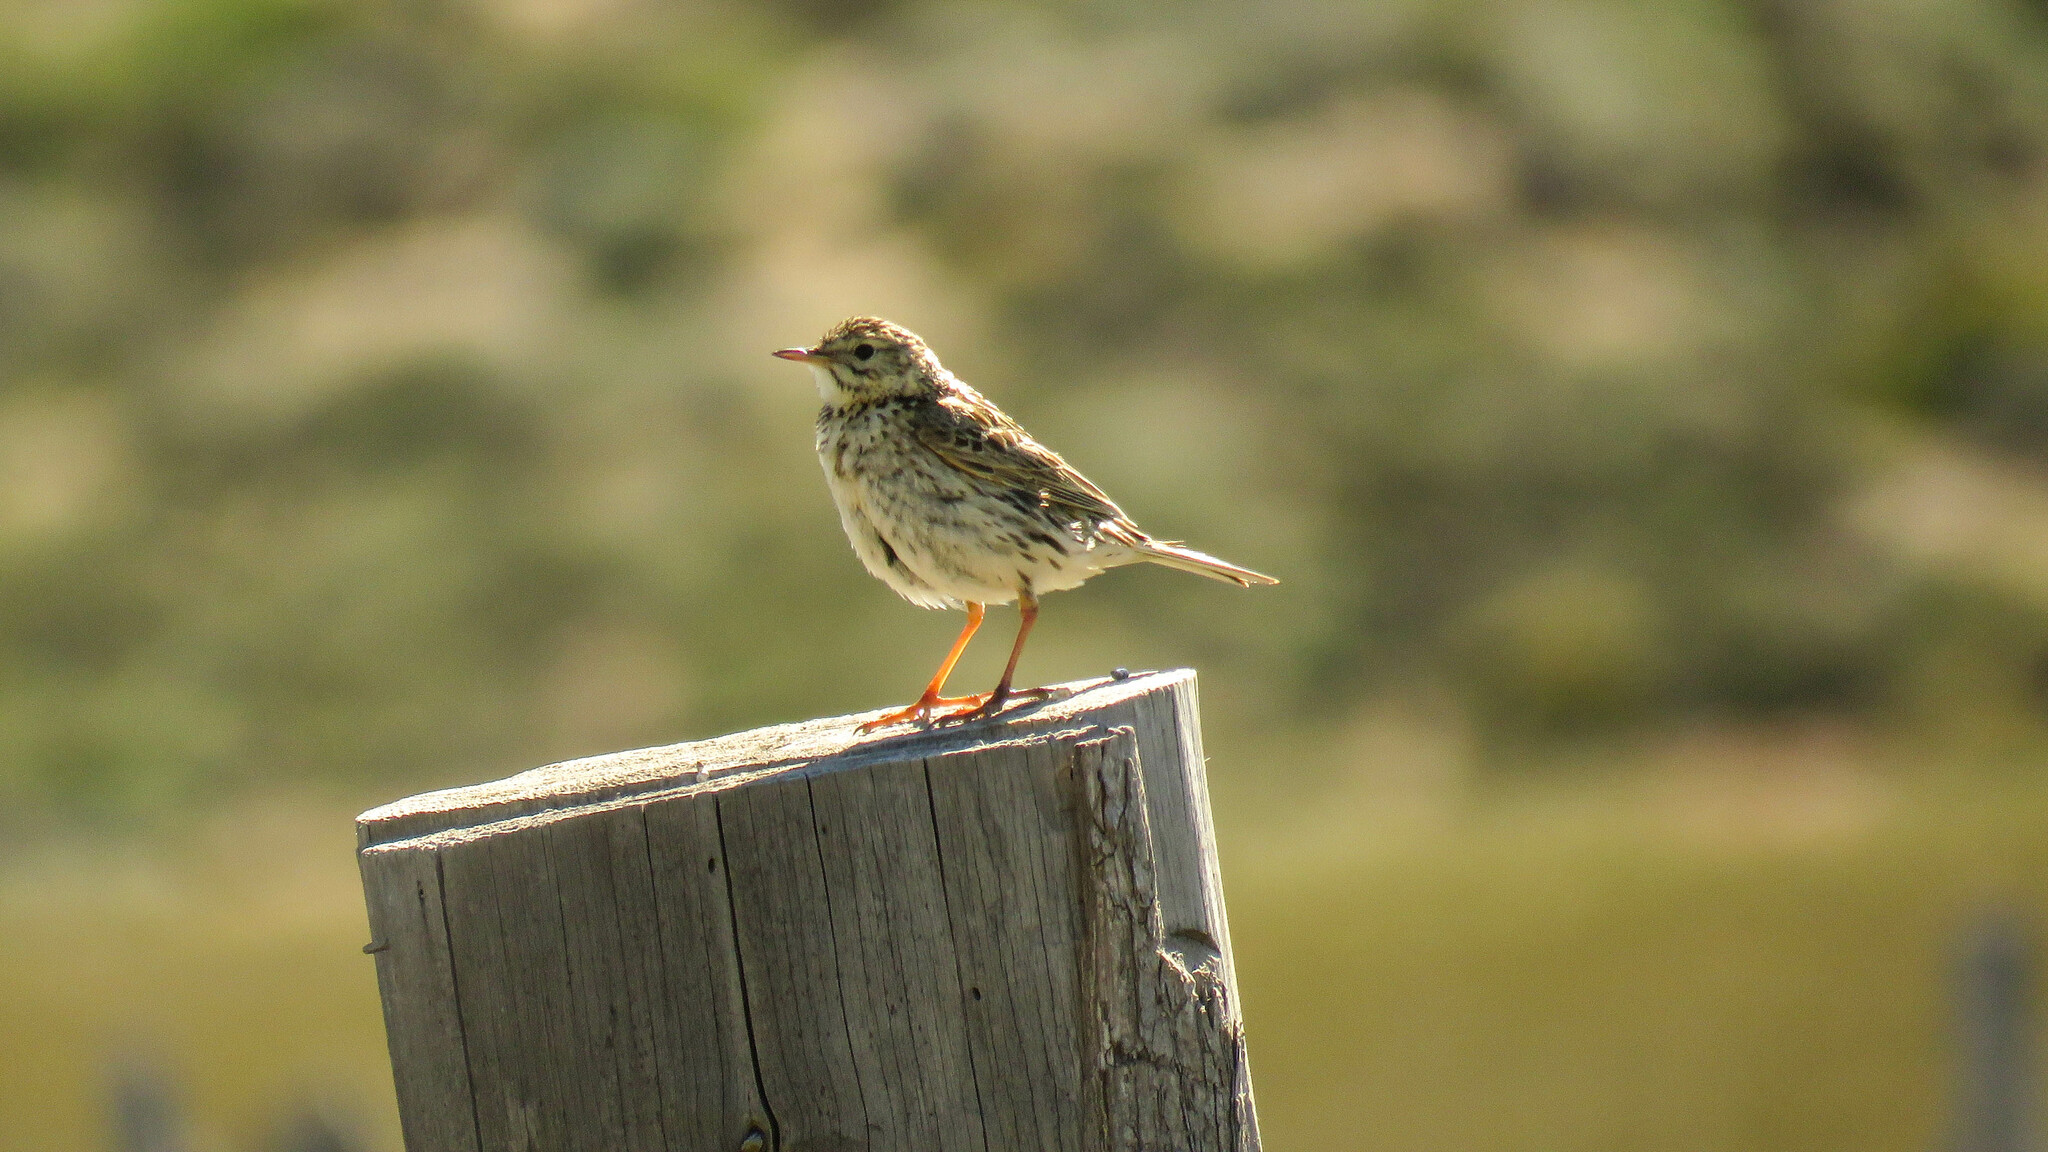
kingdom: Animalia
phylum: Chordata
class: Aves
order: Passeriformes
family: Motacillidae
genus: Anthus
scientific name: Anthus correndera
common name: Correndera pipit
